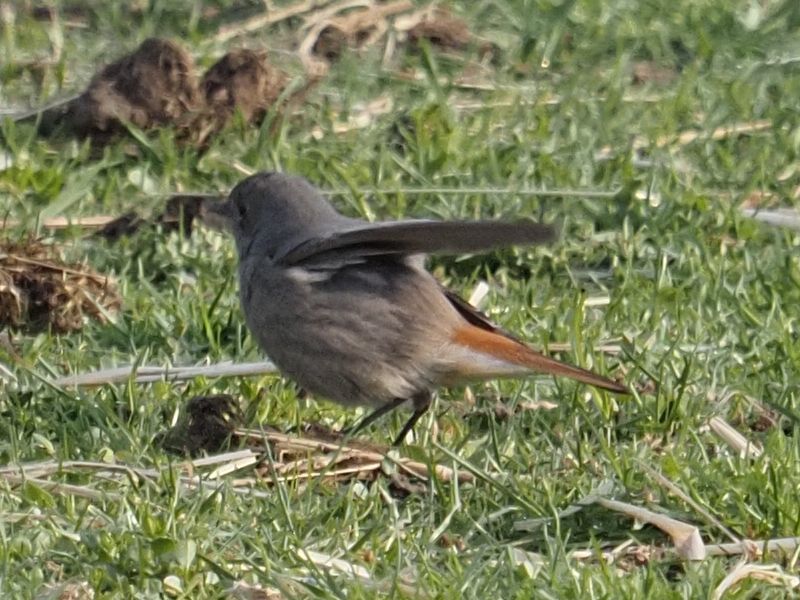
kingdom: Animalia
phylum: Chordata
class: Aves
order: Passeriformes
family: Muscicapidae
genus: Phoenicurus
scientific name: Phoenicurus ochruros
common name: Black redstart
